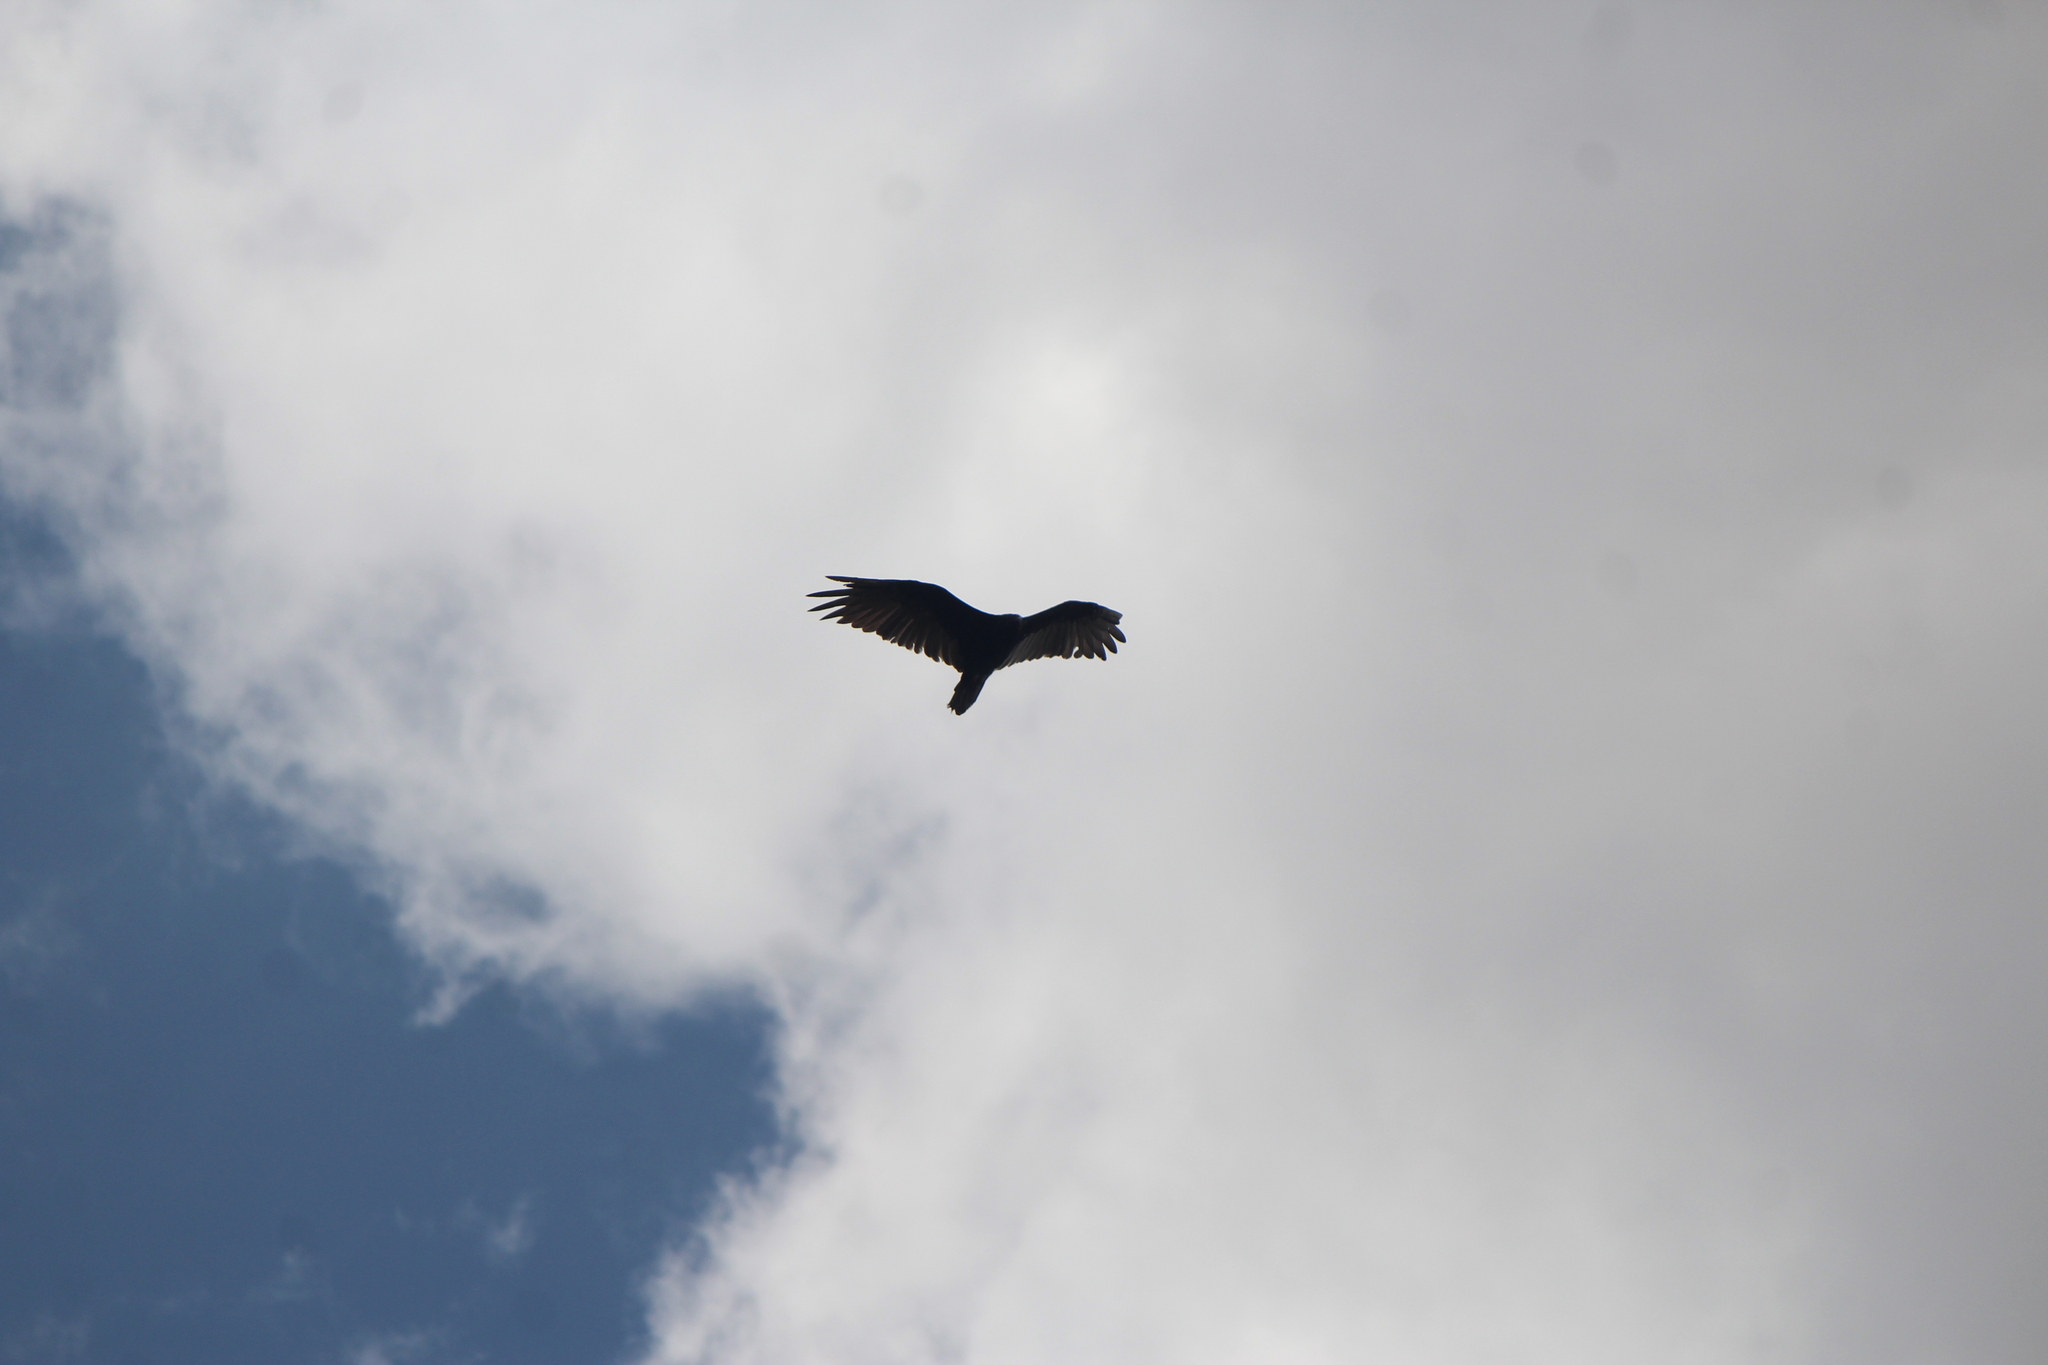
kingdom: Animalia
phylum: Chordata
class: Aves
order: Accipitriformes
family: Cathartidae
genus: Cathartes
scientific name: Cathartes aura
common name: Turkey vulture
